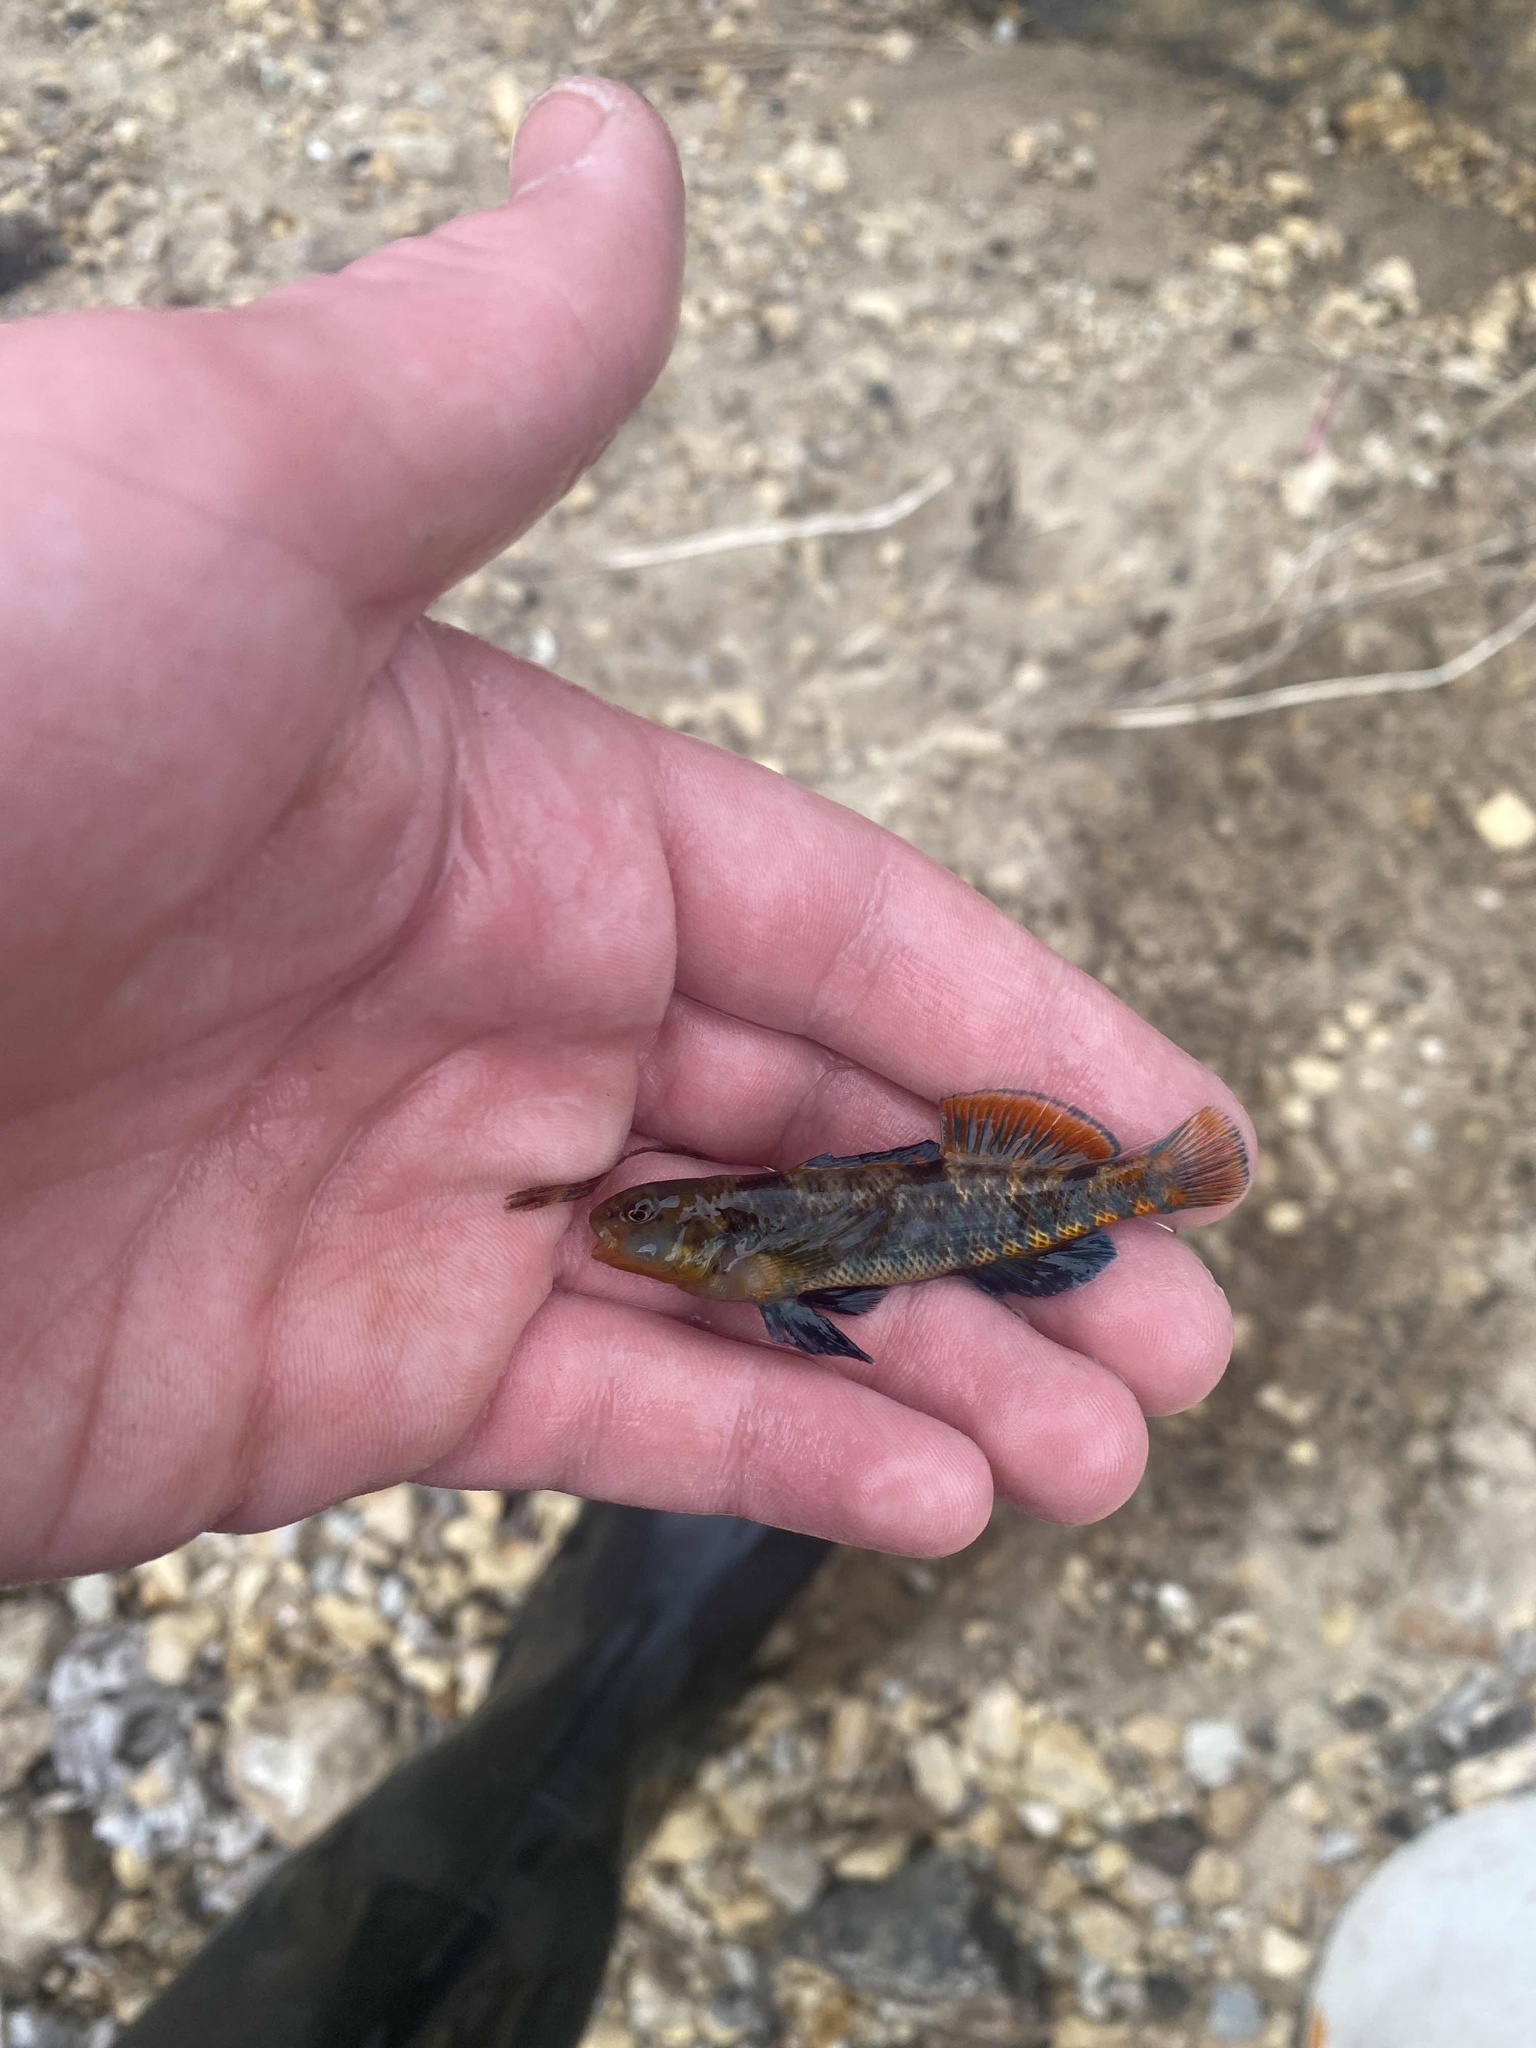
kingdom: Animalia
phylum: Chordata
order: Perciformes
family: Percidae
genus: Etheostoma
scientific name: Etheostoma caeruleum
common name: Rainbow darter
